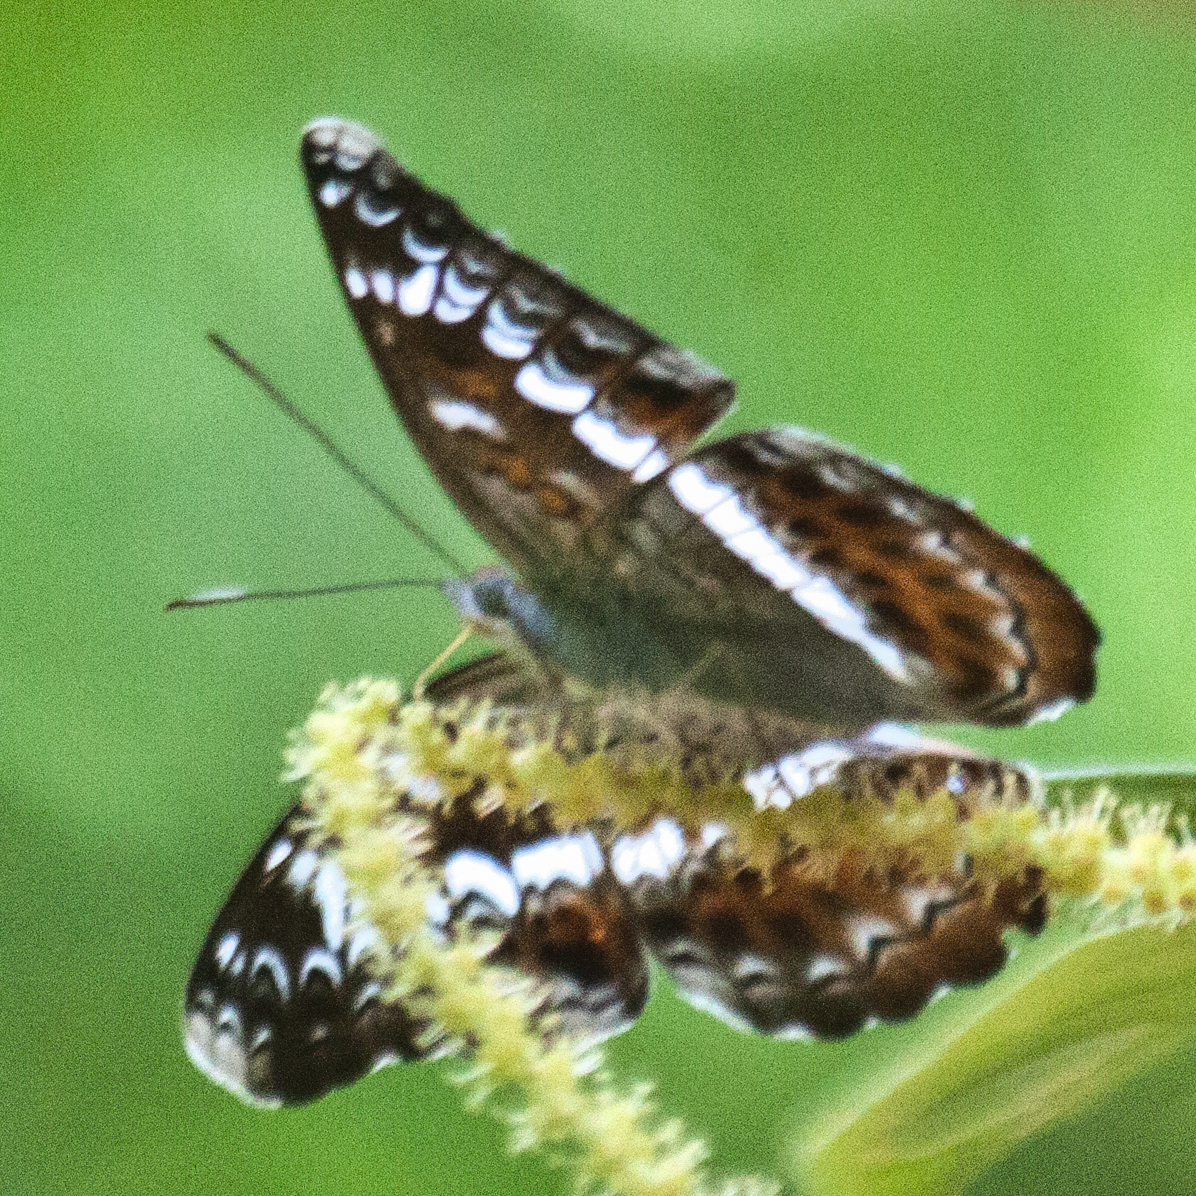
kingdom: Animalia
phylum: Arthropoda
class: Insecta
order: Lepidoptera
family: Nymphalidae
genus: Lebadea
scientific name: Lebadea martha
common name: Knight
